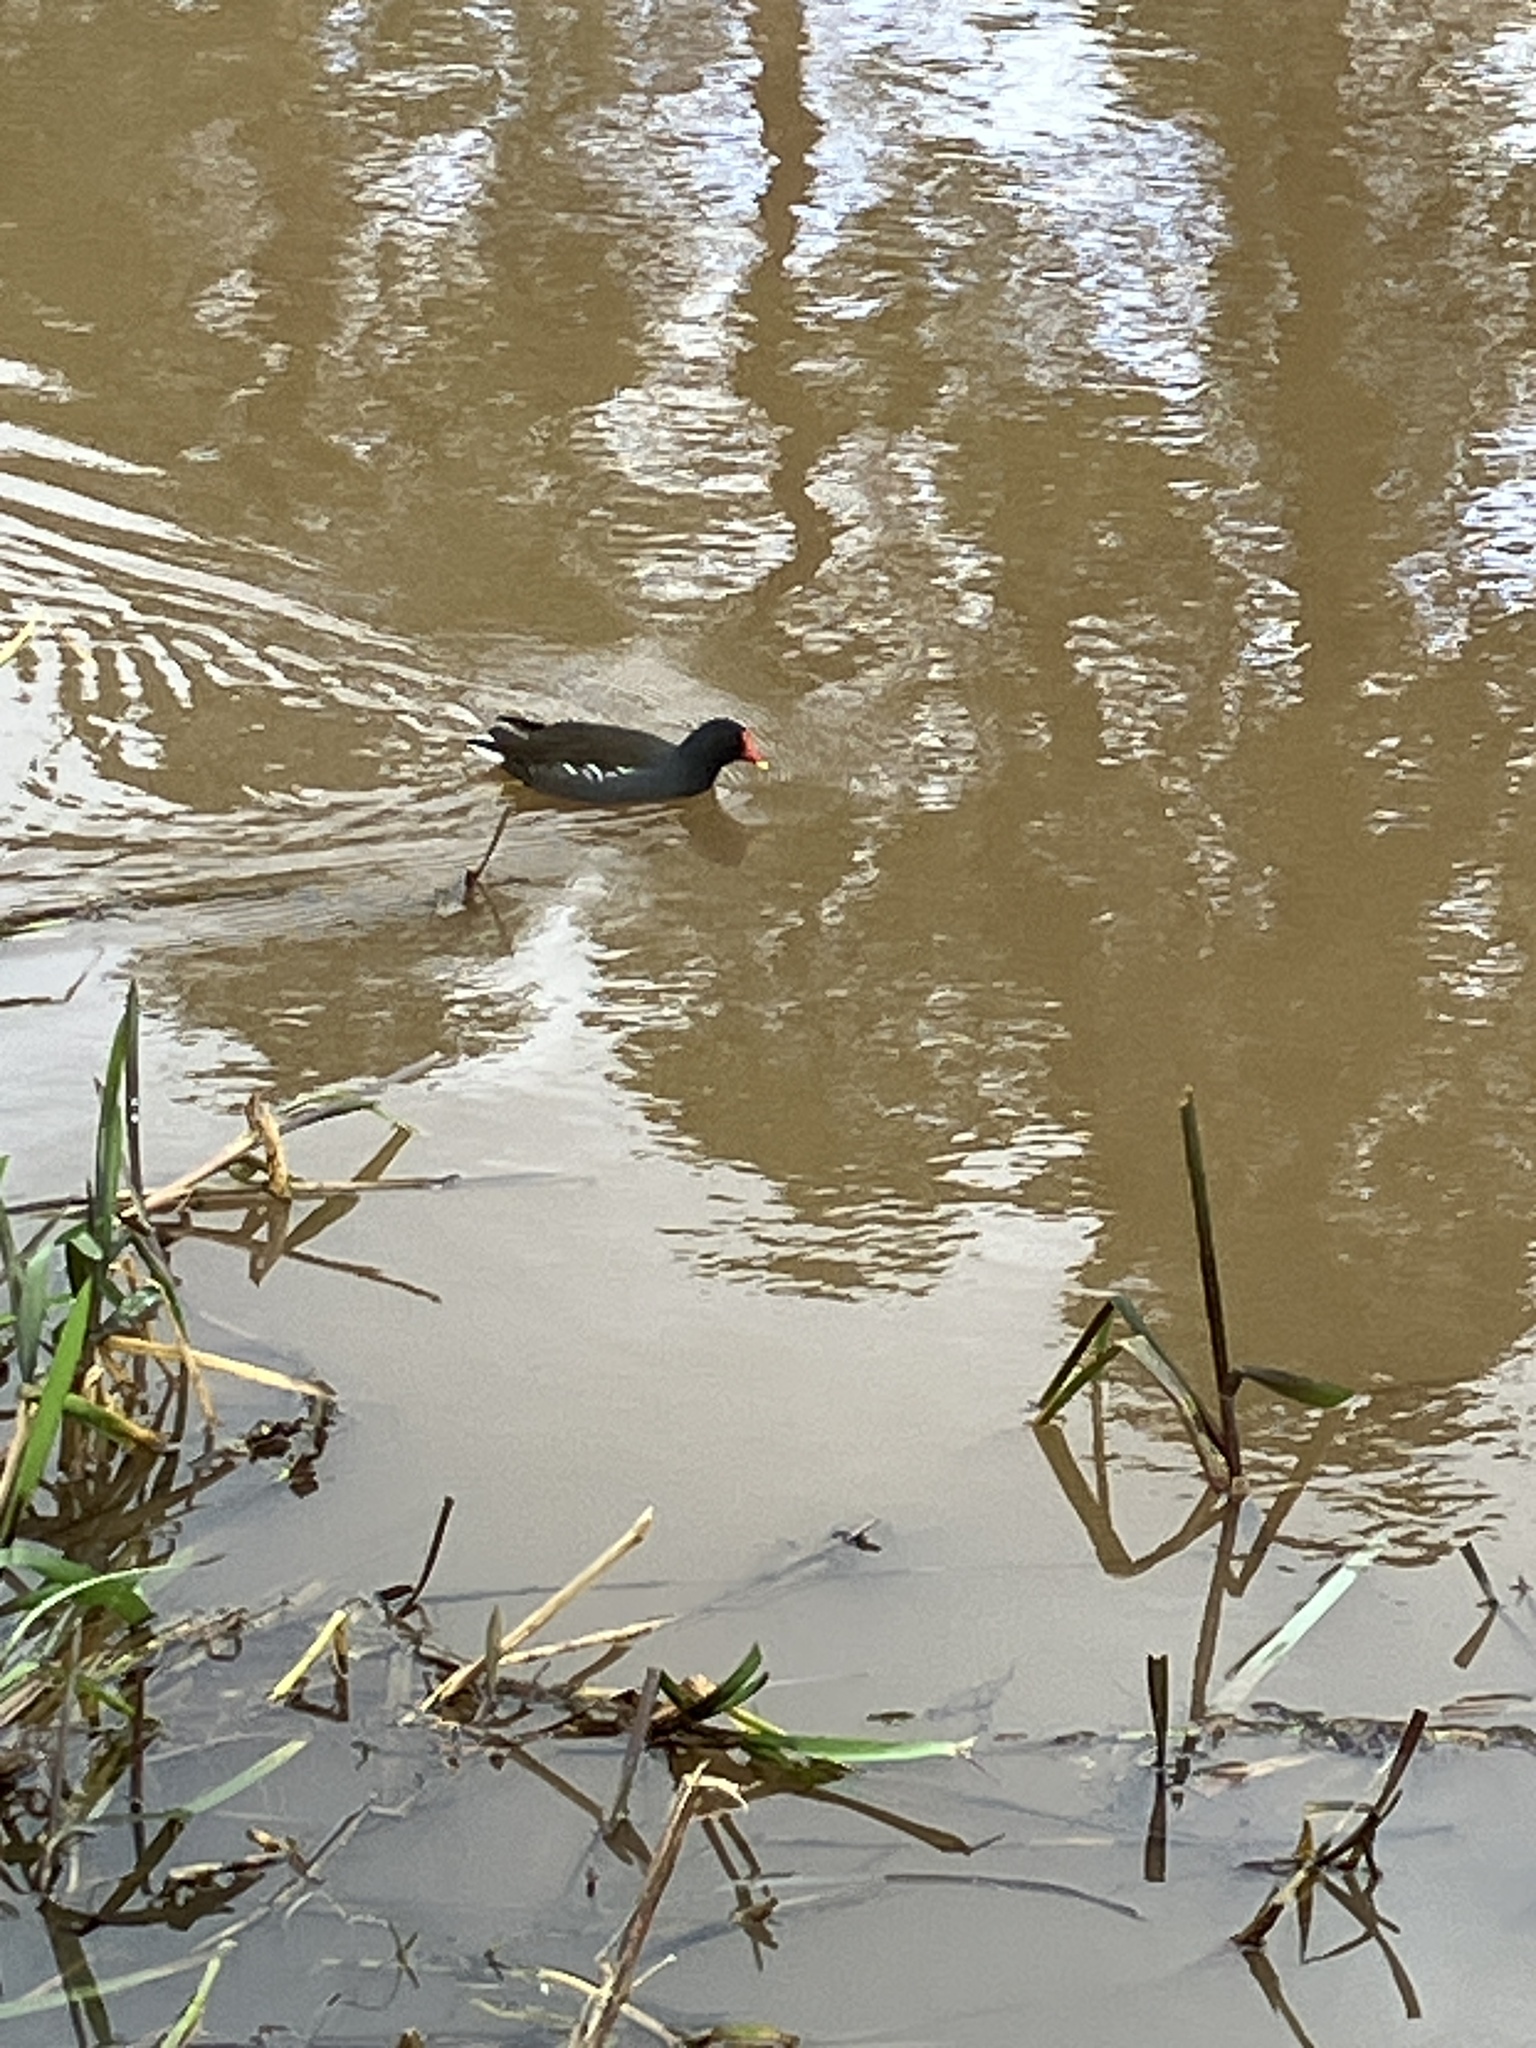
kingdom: Animalia
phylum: Chordata
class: Aves
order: Gruiformes
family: Rallidae
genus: Gallinula
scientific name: Gallinula chloropus
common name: Common moorhen
